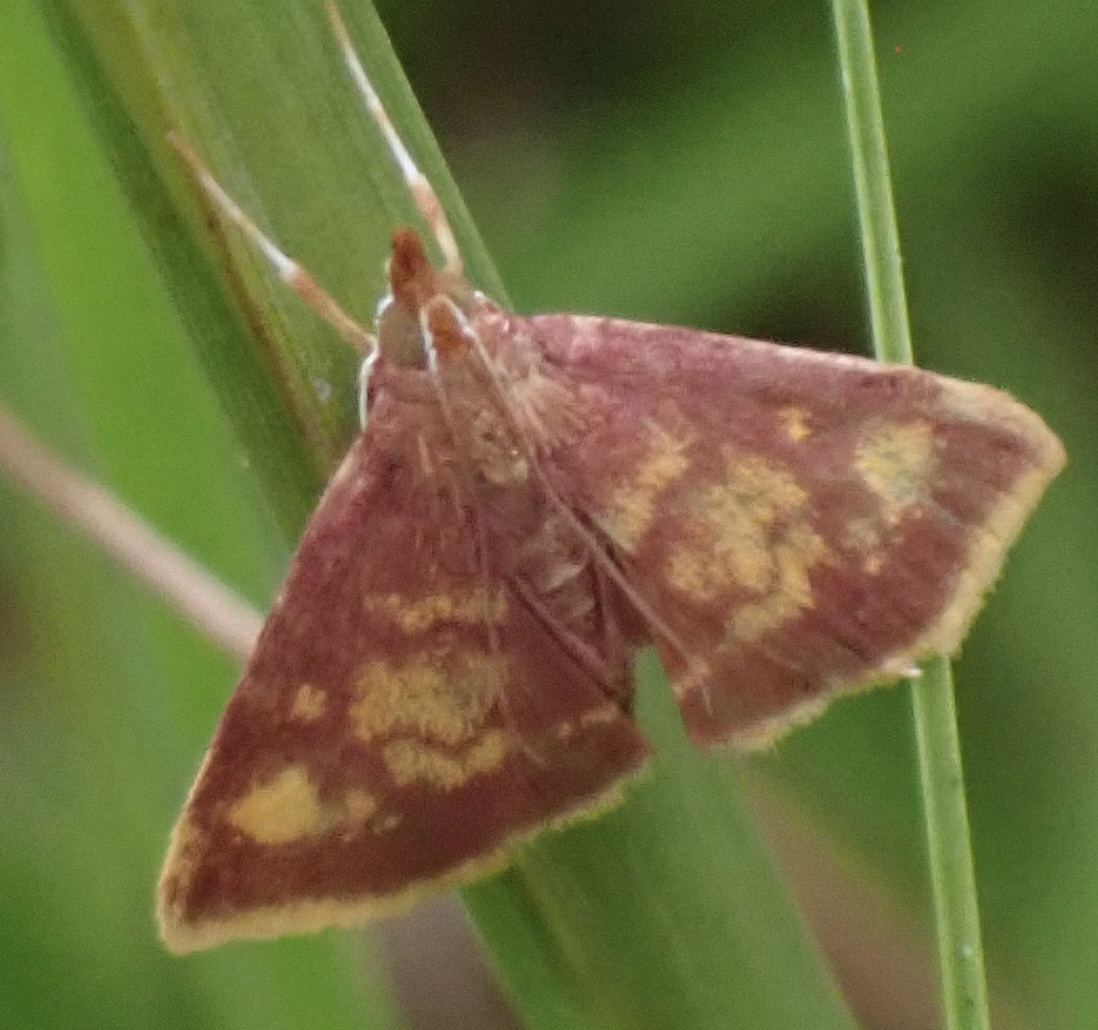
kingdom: Animalia
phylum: Arthropoda
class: Insecta
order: Lepidoptera
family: Crambidae
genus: Pyrausta
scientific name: Pyrausta acrionalis
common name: Mint-loving pyrausta moth
